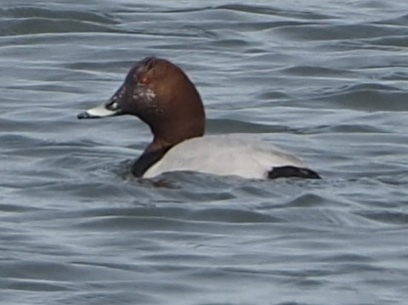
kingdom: Animalia
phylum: Chordata
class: Aves
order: Anseriformes
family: Anatidae
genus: Aythya
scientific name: Aythya ferina
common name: Common pochard
